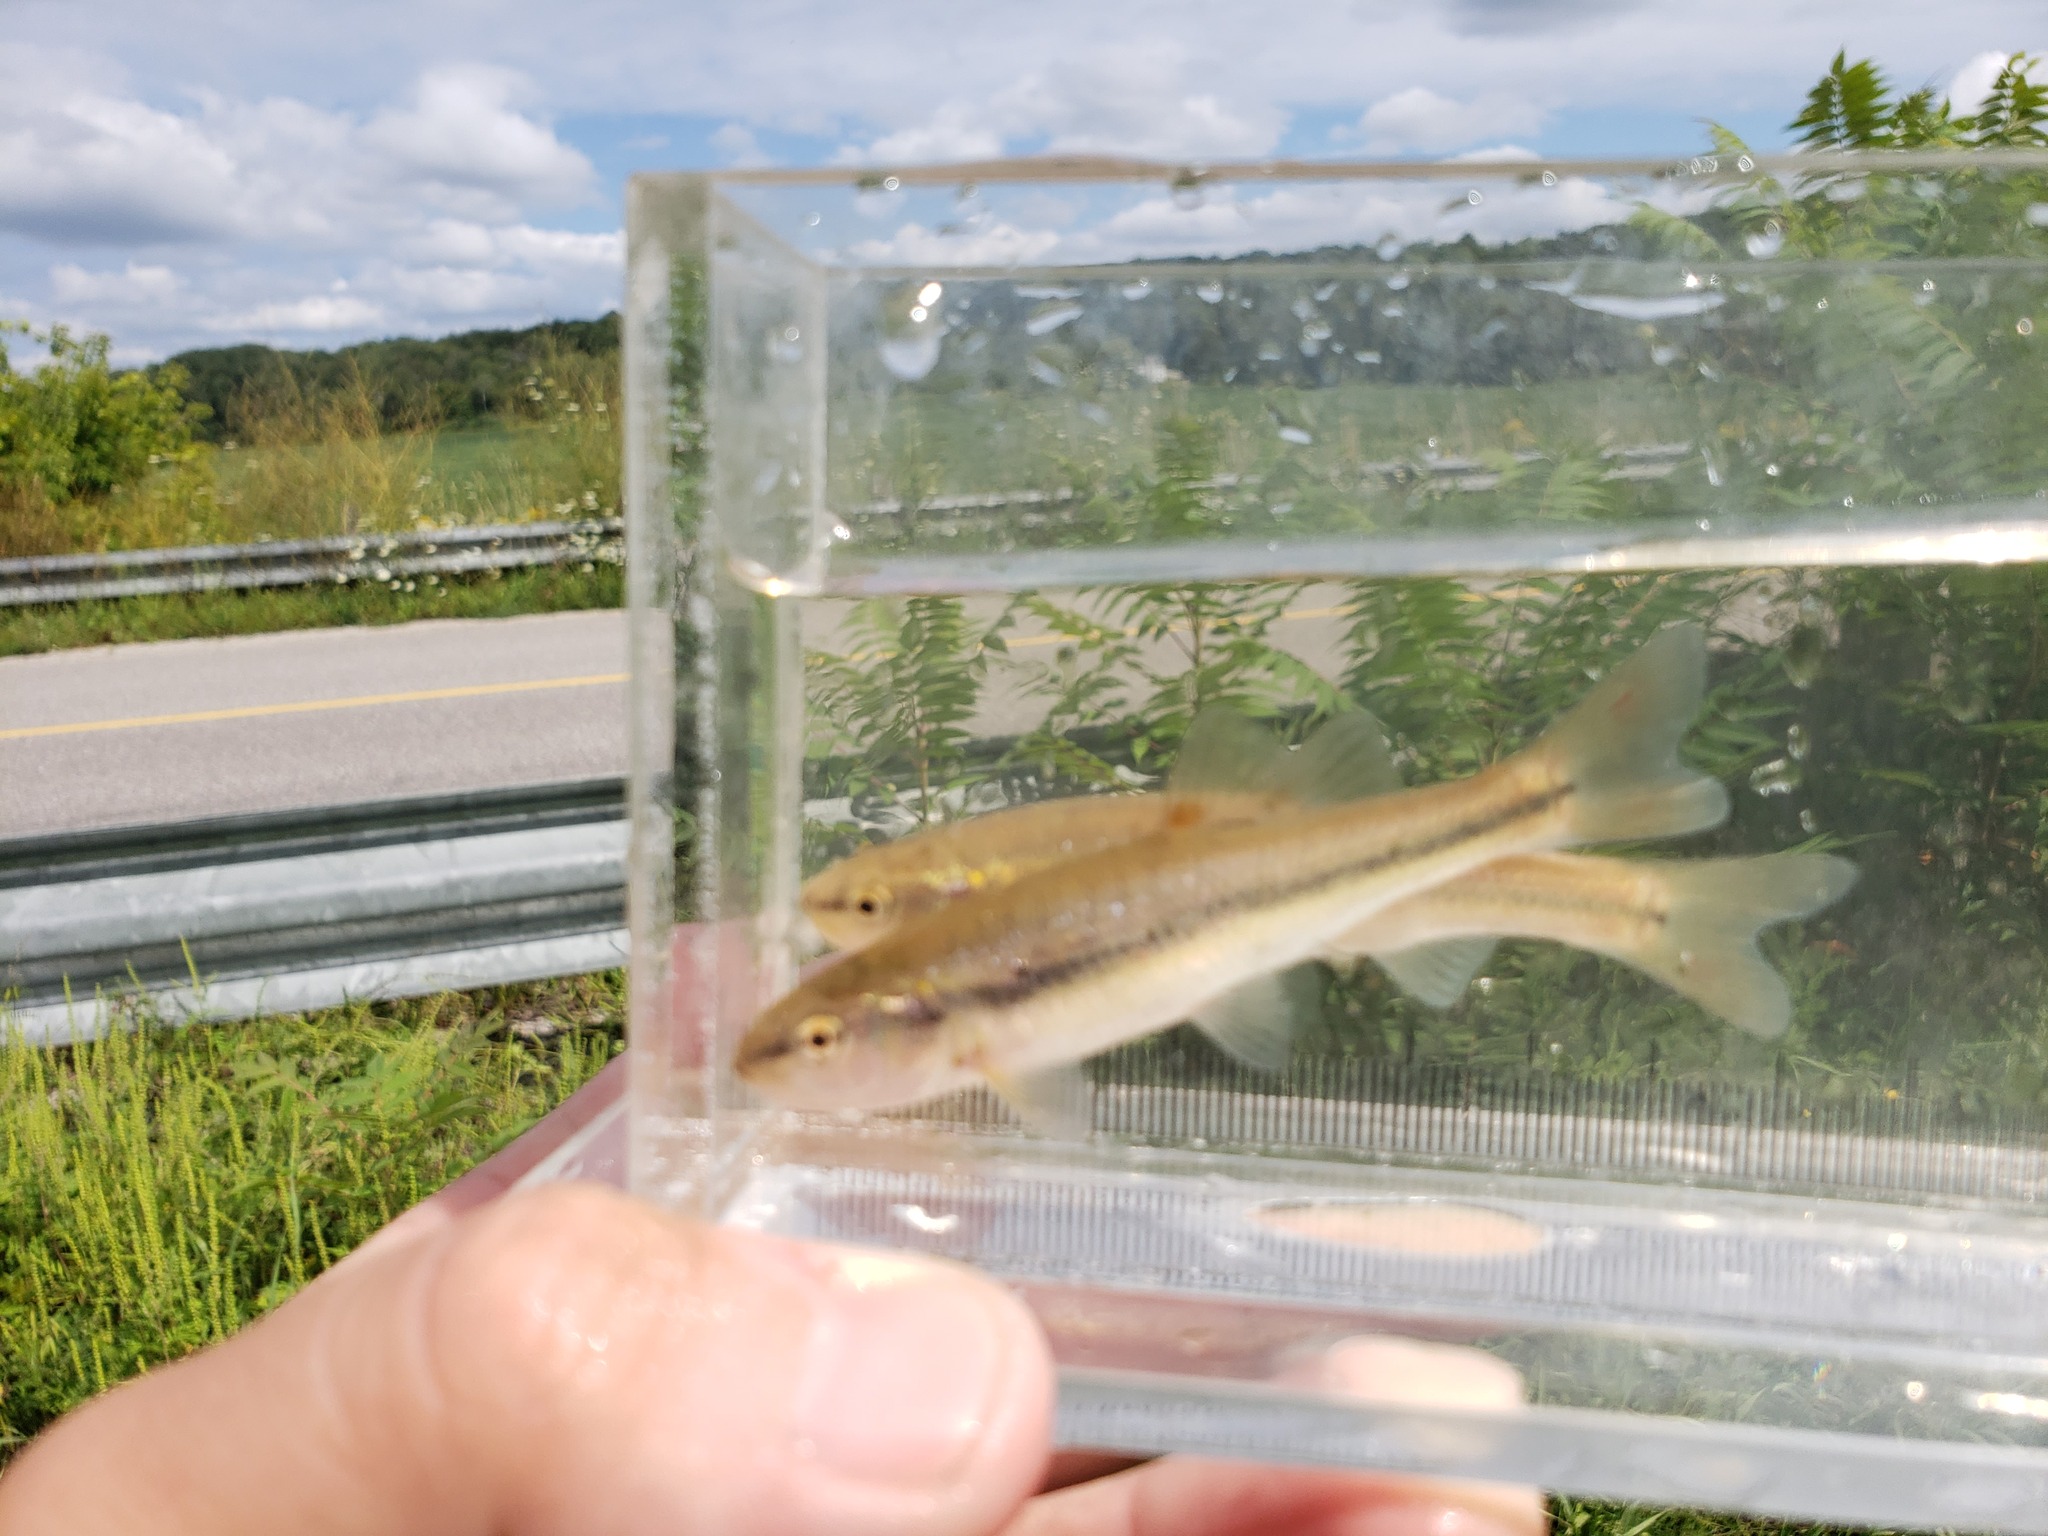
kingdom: Animalia
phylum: Chordata
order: Cypriniformes
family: Cyprinidae
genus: Semotilus
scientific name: Semotilus atromaculatus
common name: Creek chub
